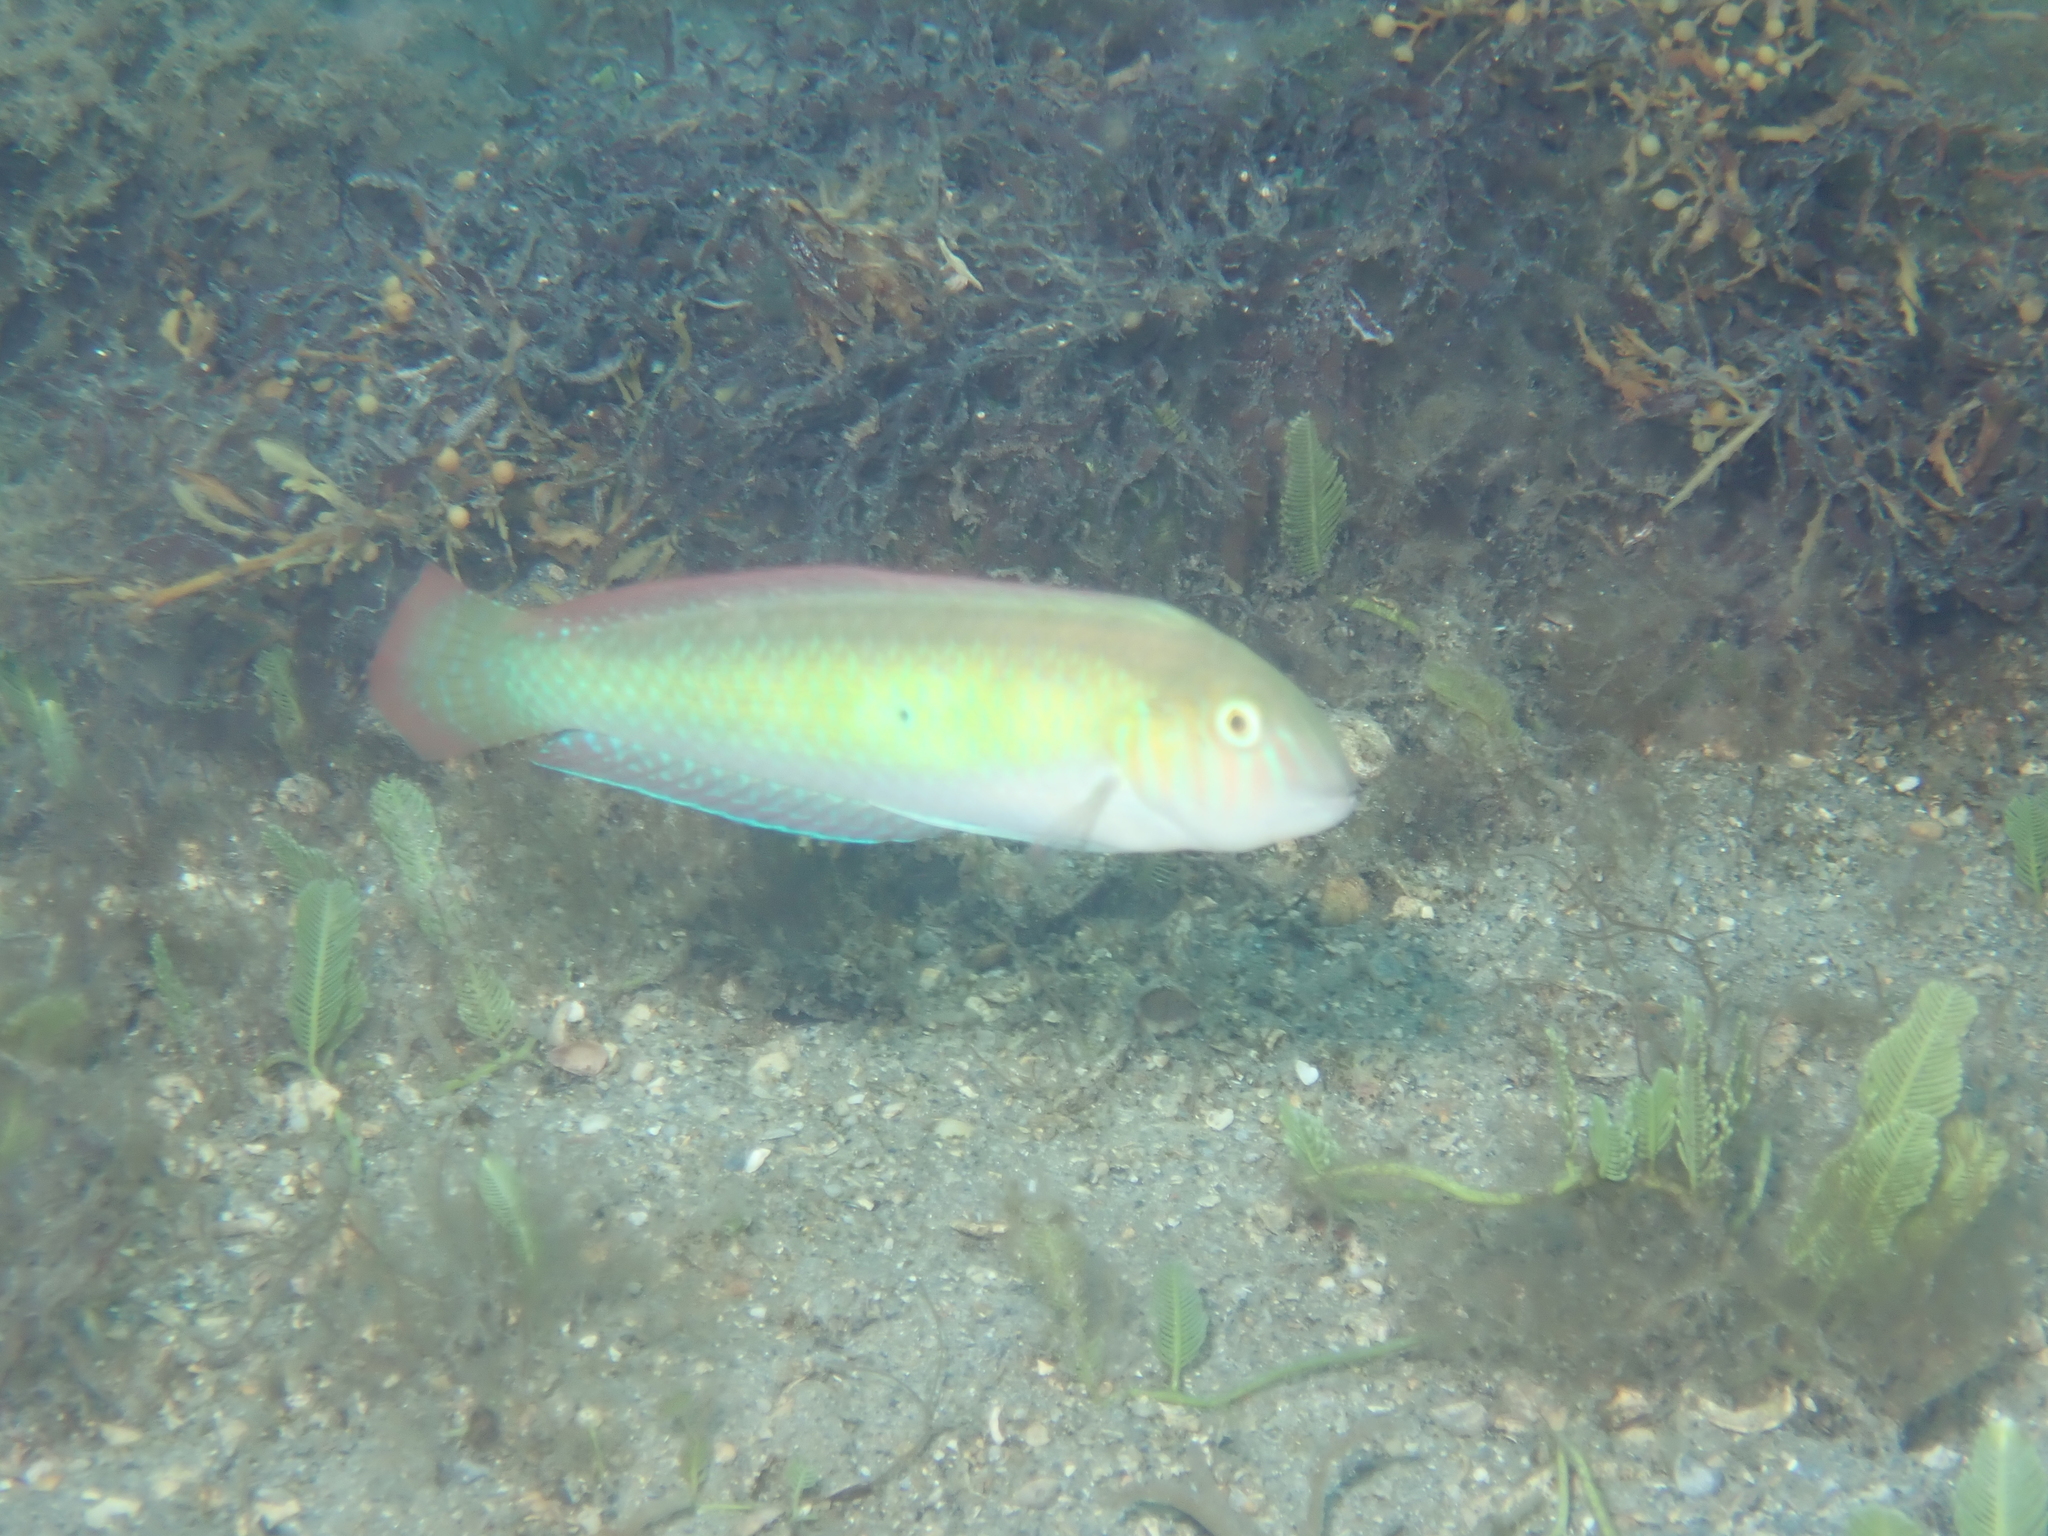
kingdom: Animalia
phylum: Chordata
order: Perciformes
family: Labridae
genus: Xyrichtys
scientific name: Xyrichtys splendens
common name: Green razorfish
